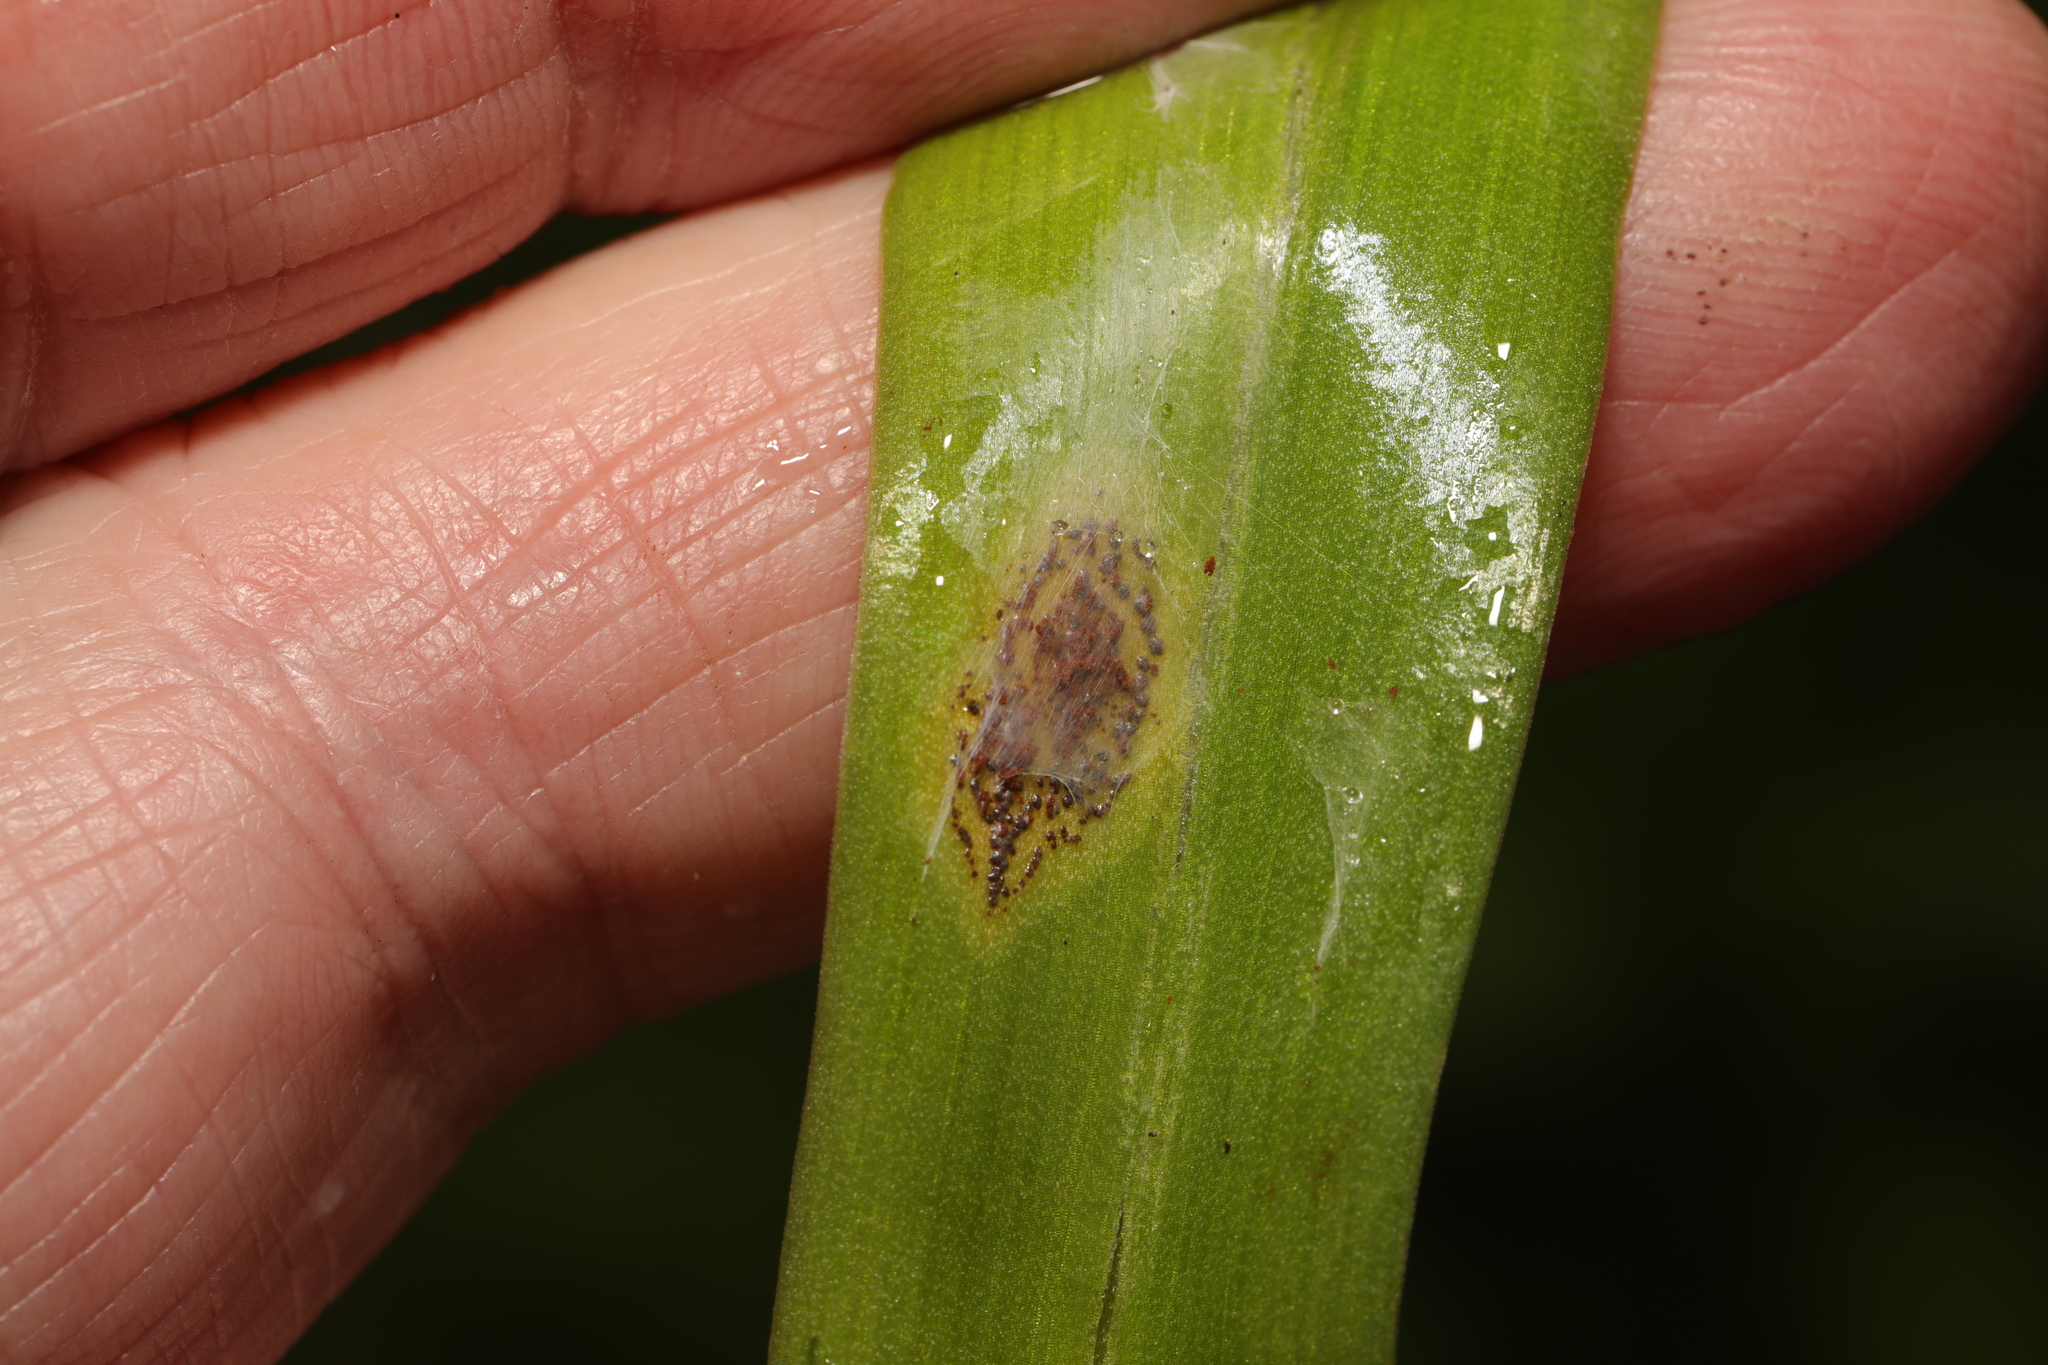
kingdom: Fungi
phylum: Basidiomycota
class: Pucciniomycetes
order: Pucciniales
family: Pucciniaceae
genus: Uromyces
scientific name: Uromyces hyacinthi
